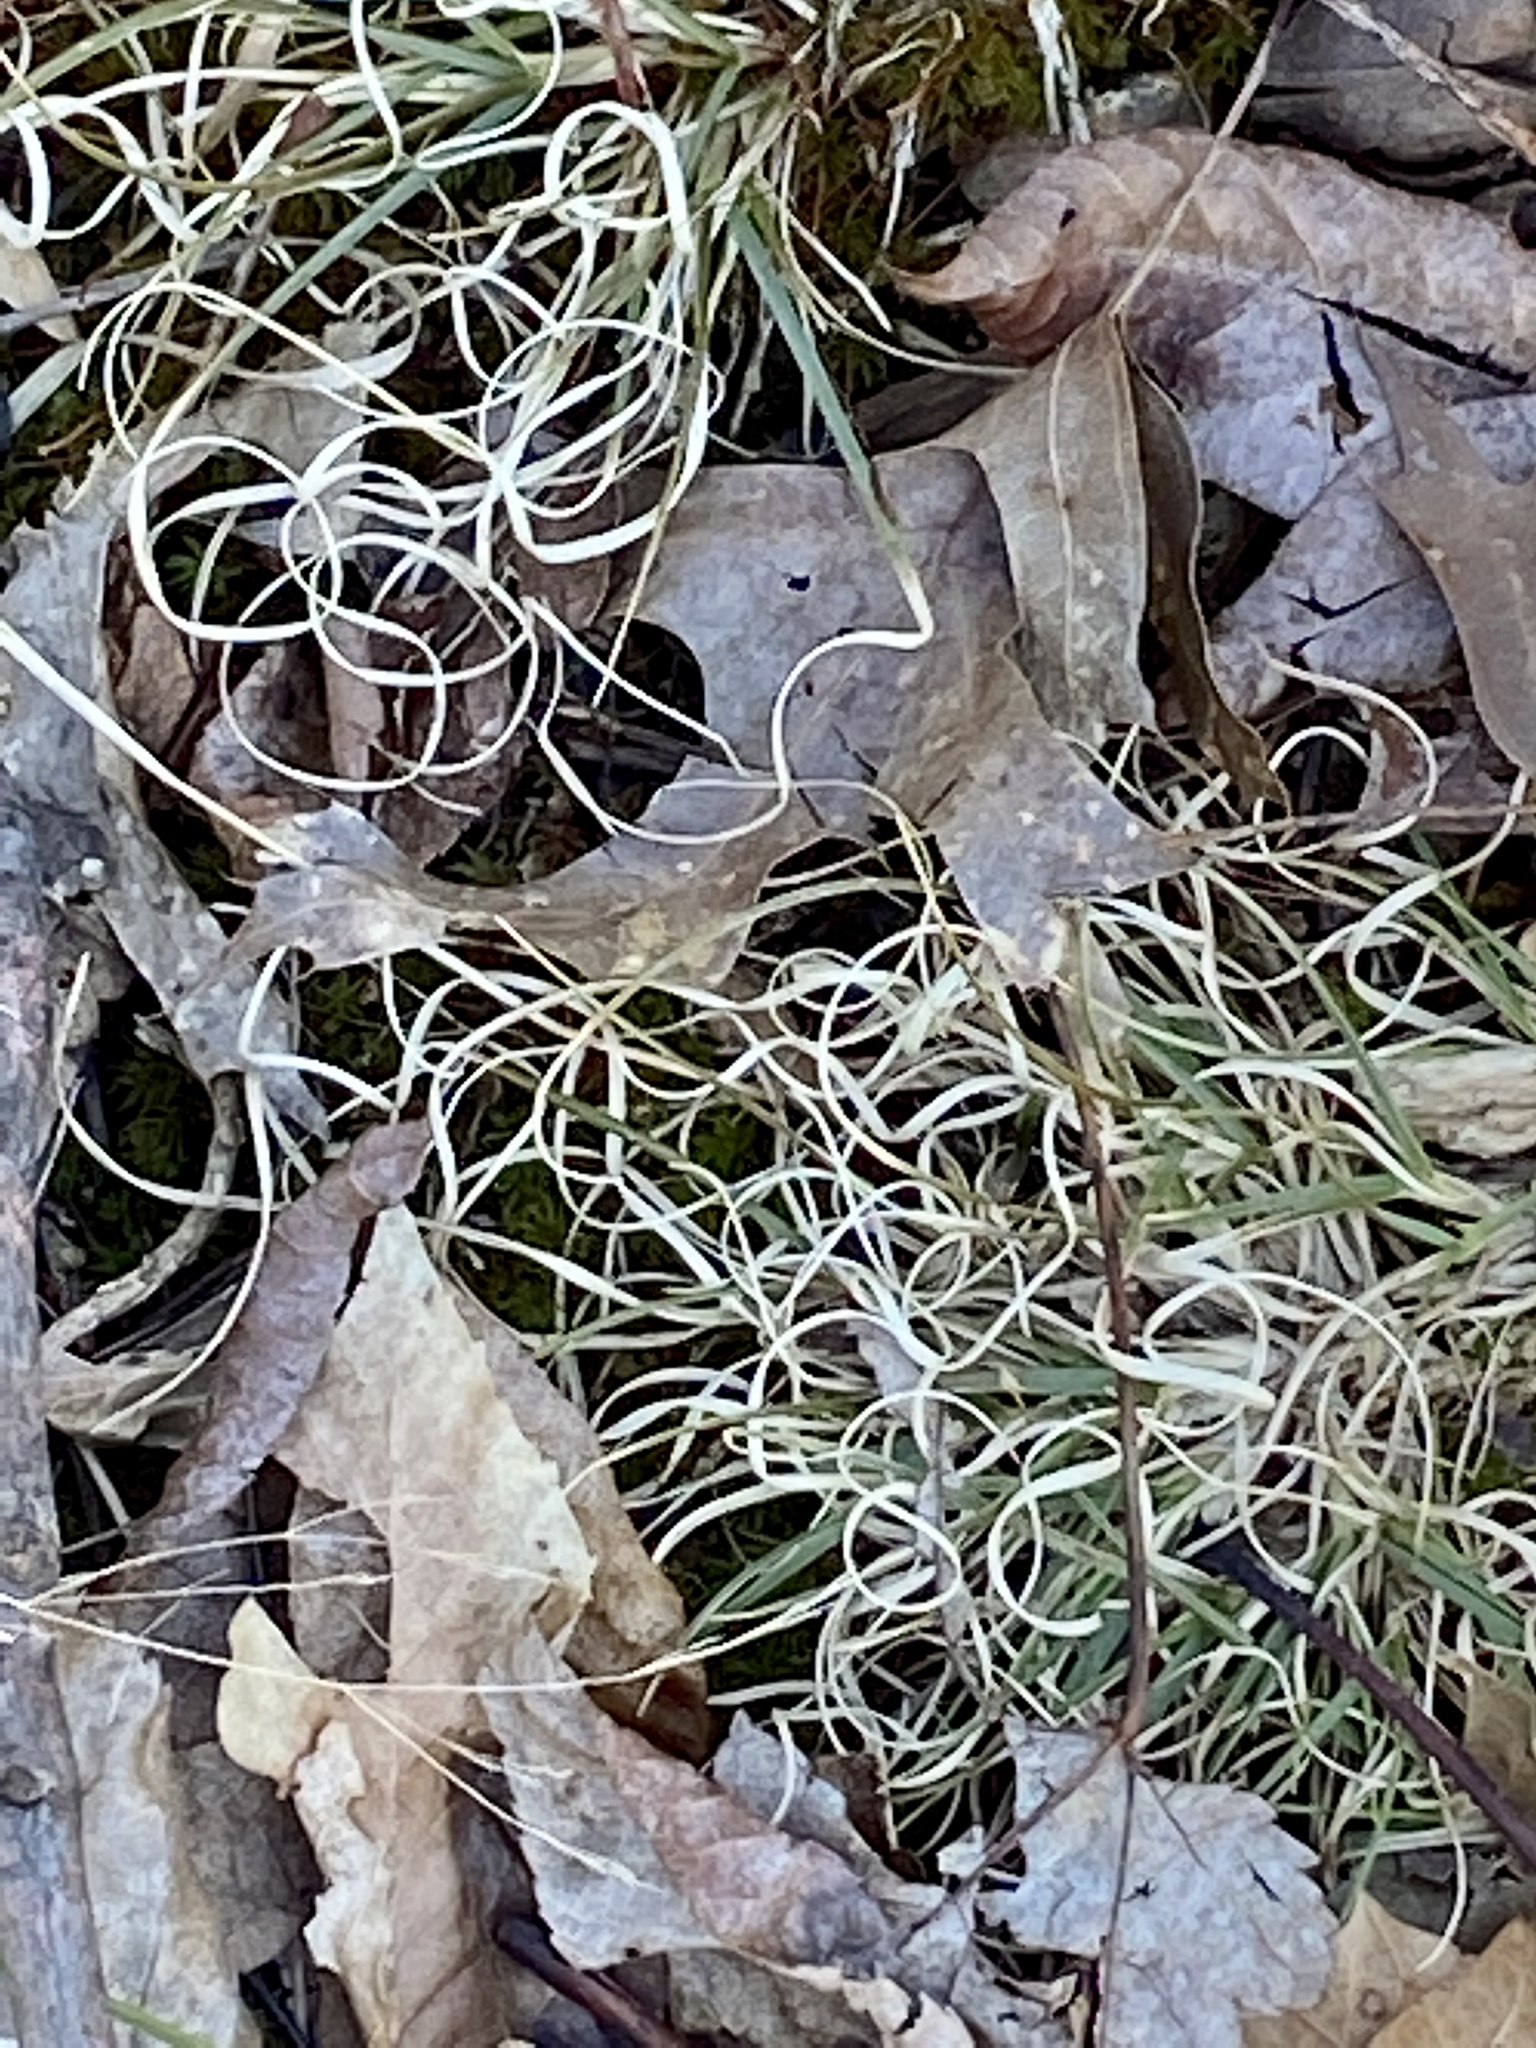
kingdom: Plantae
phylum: Tracheophyta
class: Liliopsida
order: Poales
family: Poaceae
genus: Danthonia
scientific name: Danthonia spicata
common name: Common wild oatgrass
